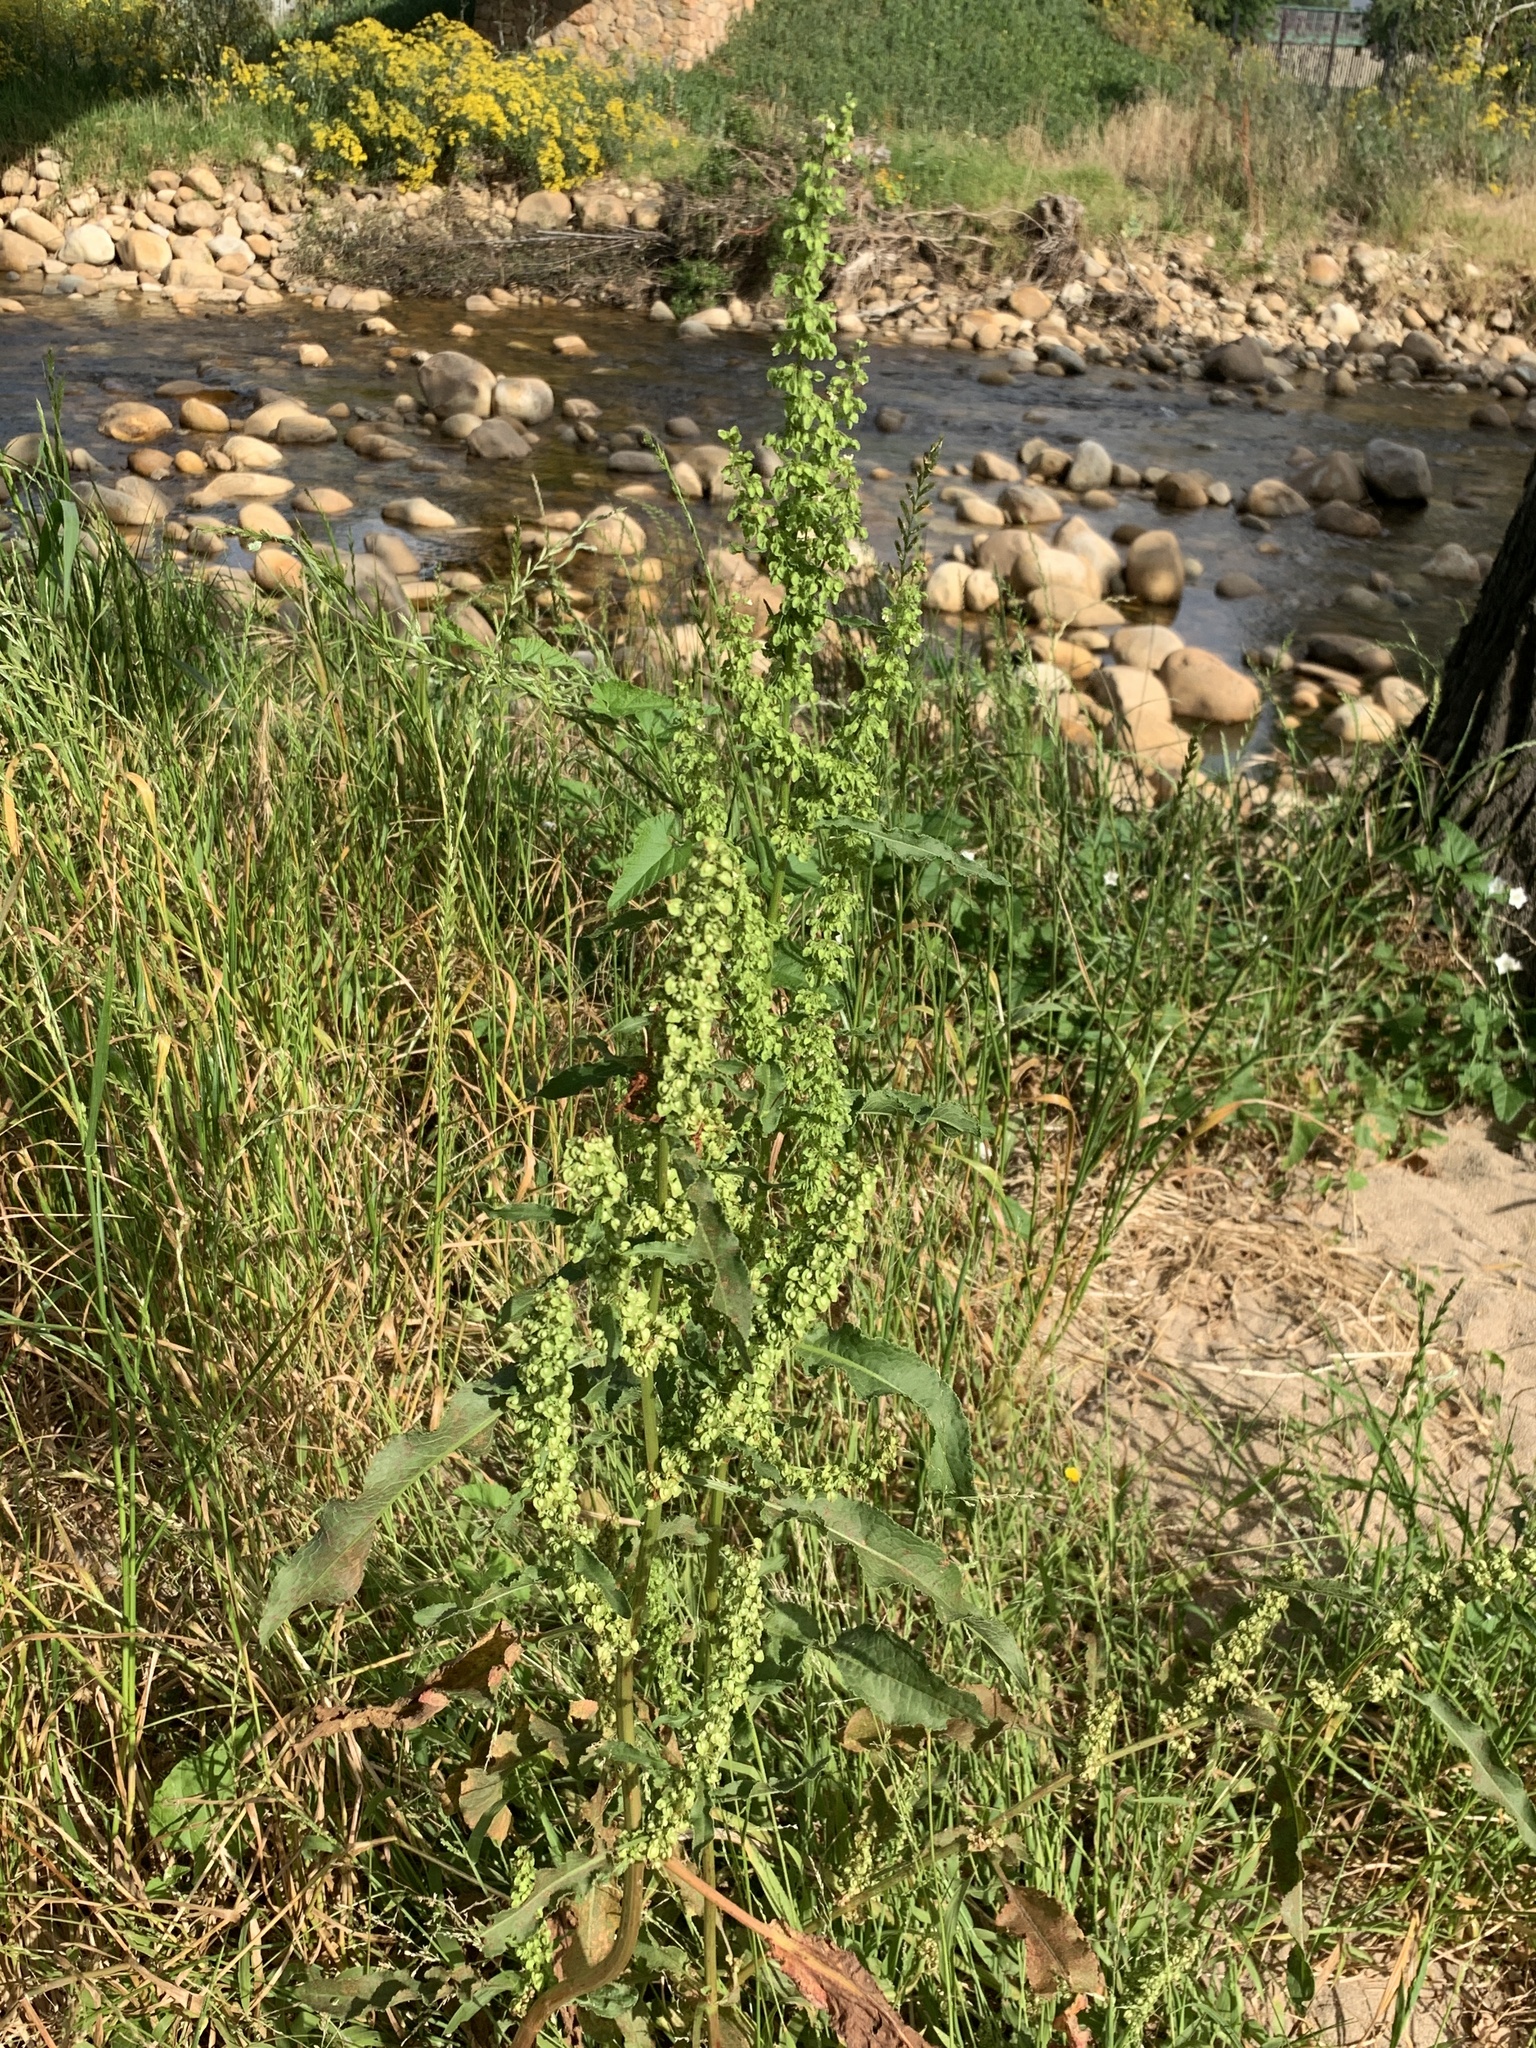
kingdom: Plantae
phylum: Tracheophyta
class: Magnoliopsida
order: Caryophyllales
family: Polygonaceae
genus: Rumex
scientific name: Rumex crispus
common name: Curled dock
